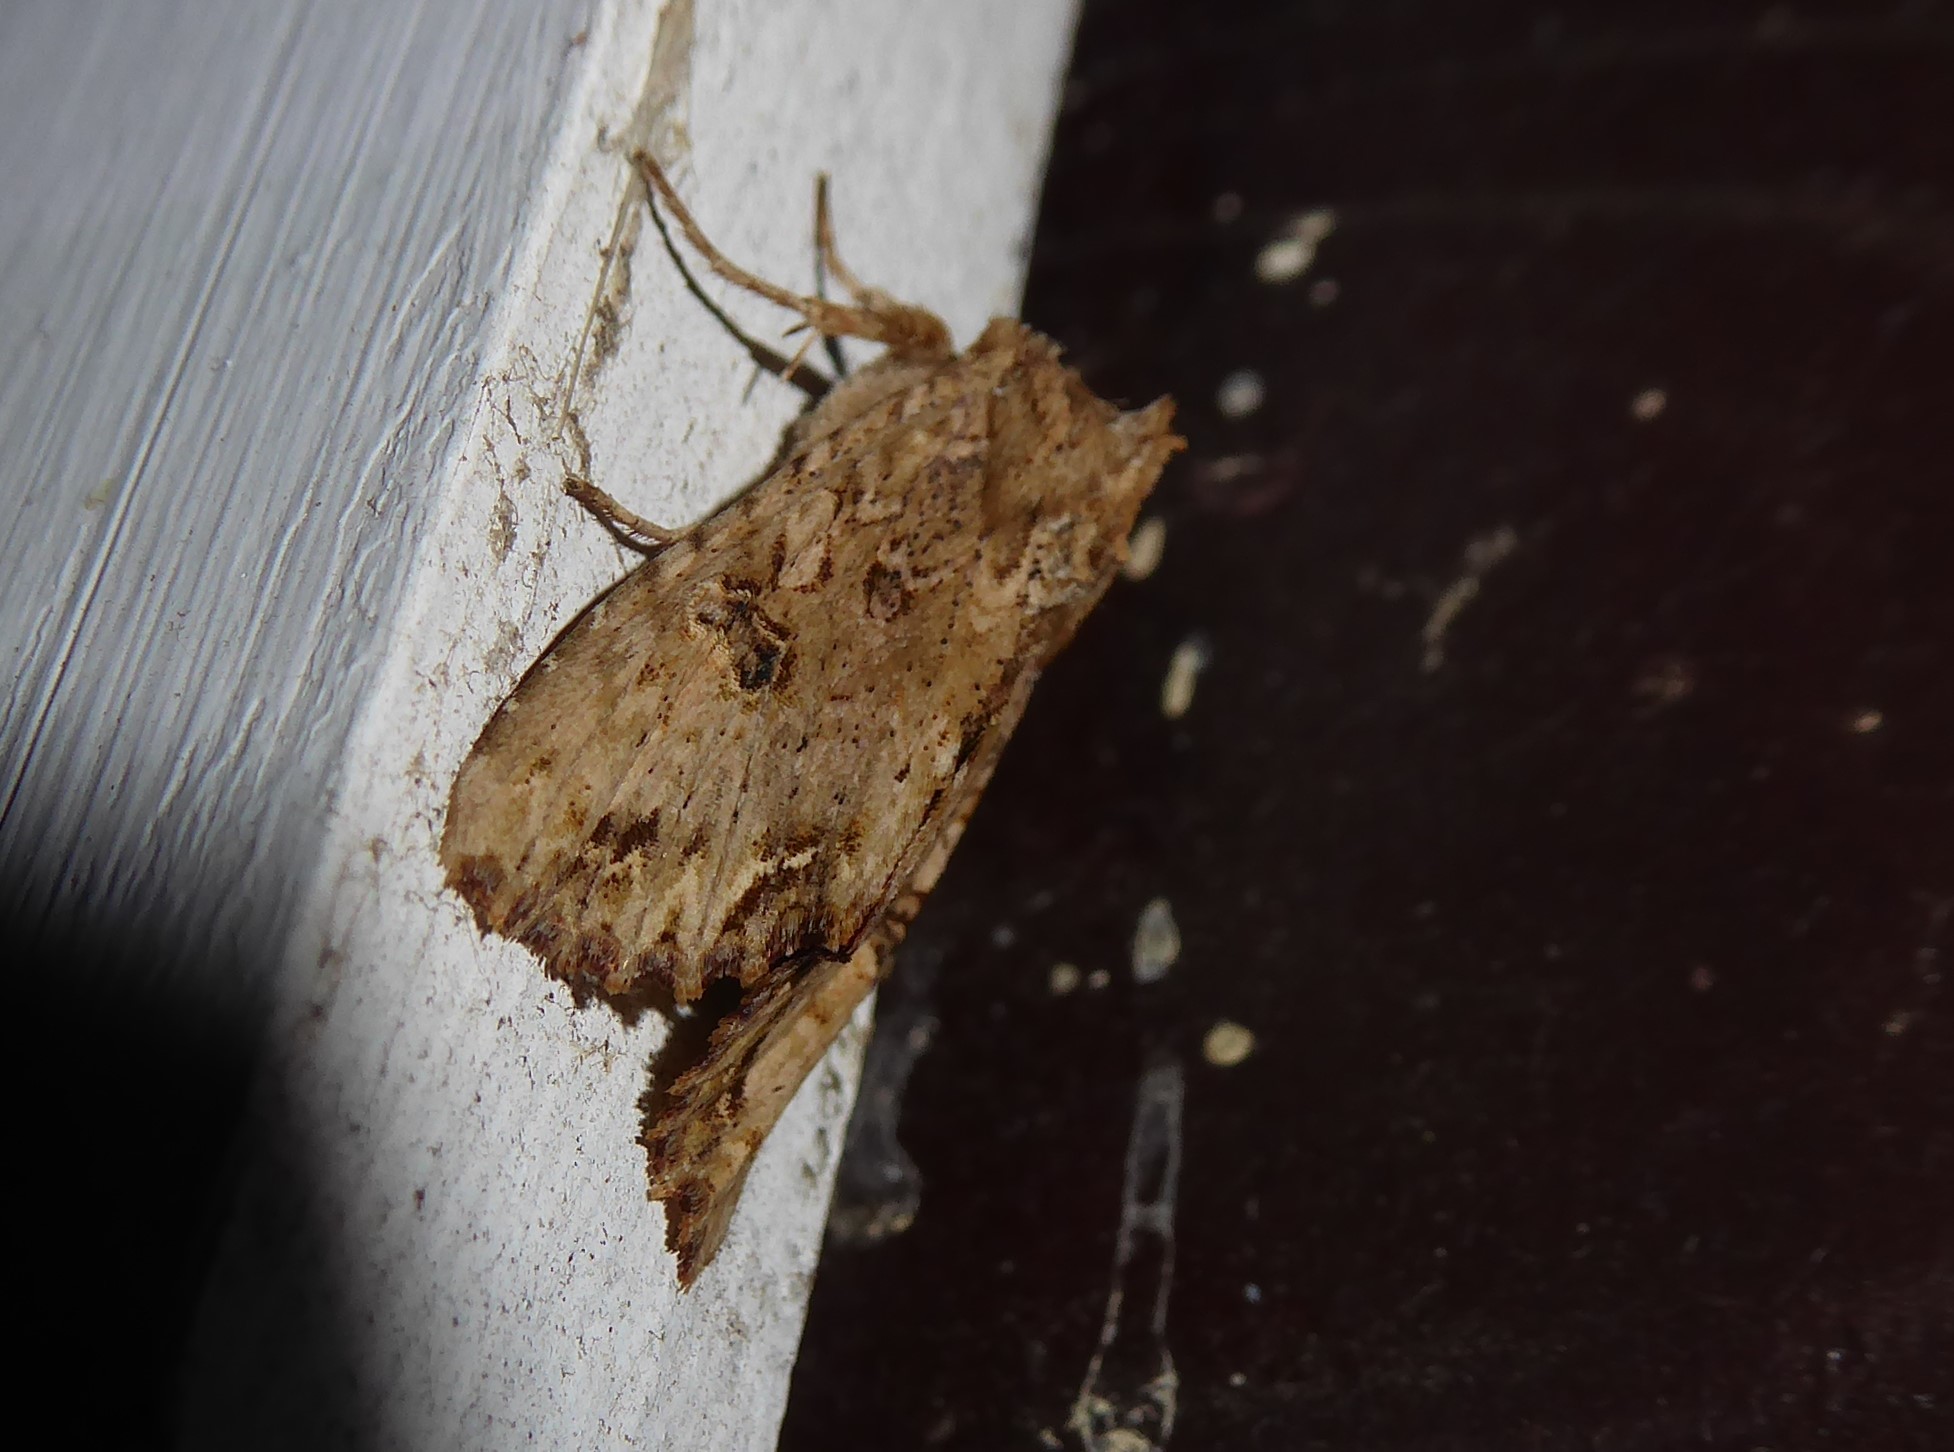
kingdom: Animalia
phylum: Arthropoda
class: Insecta
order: Lepidoptera
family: Noctuidae
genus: Ichneutica
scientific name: Ichneutica
